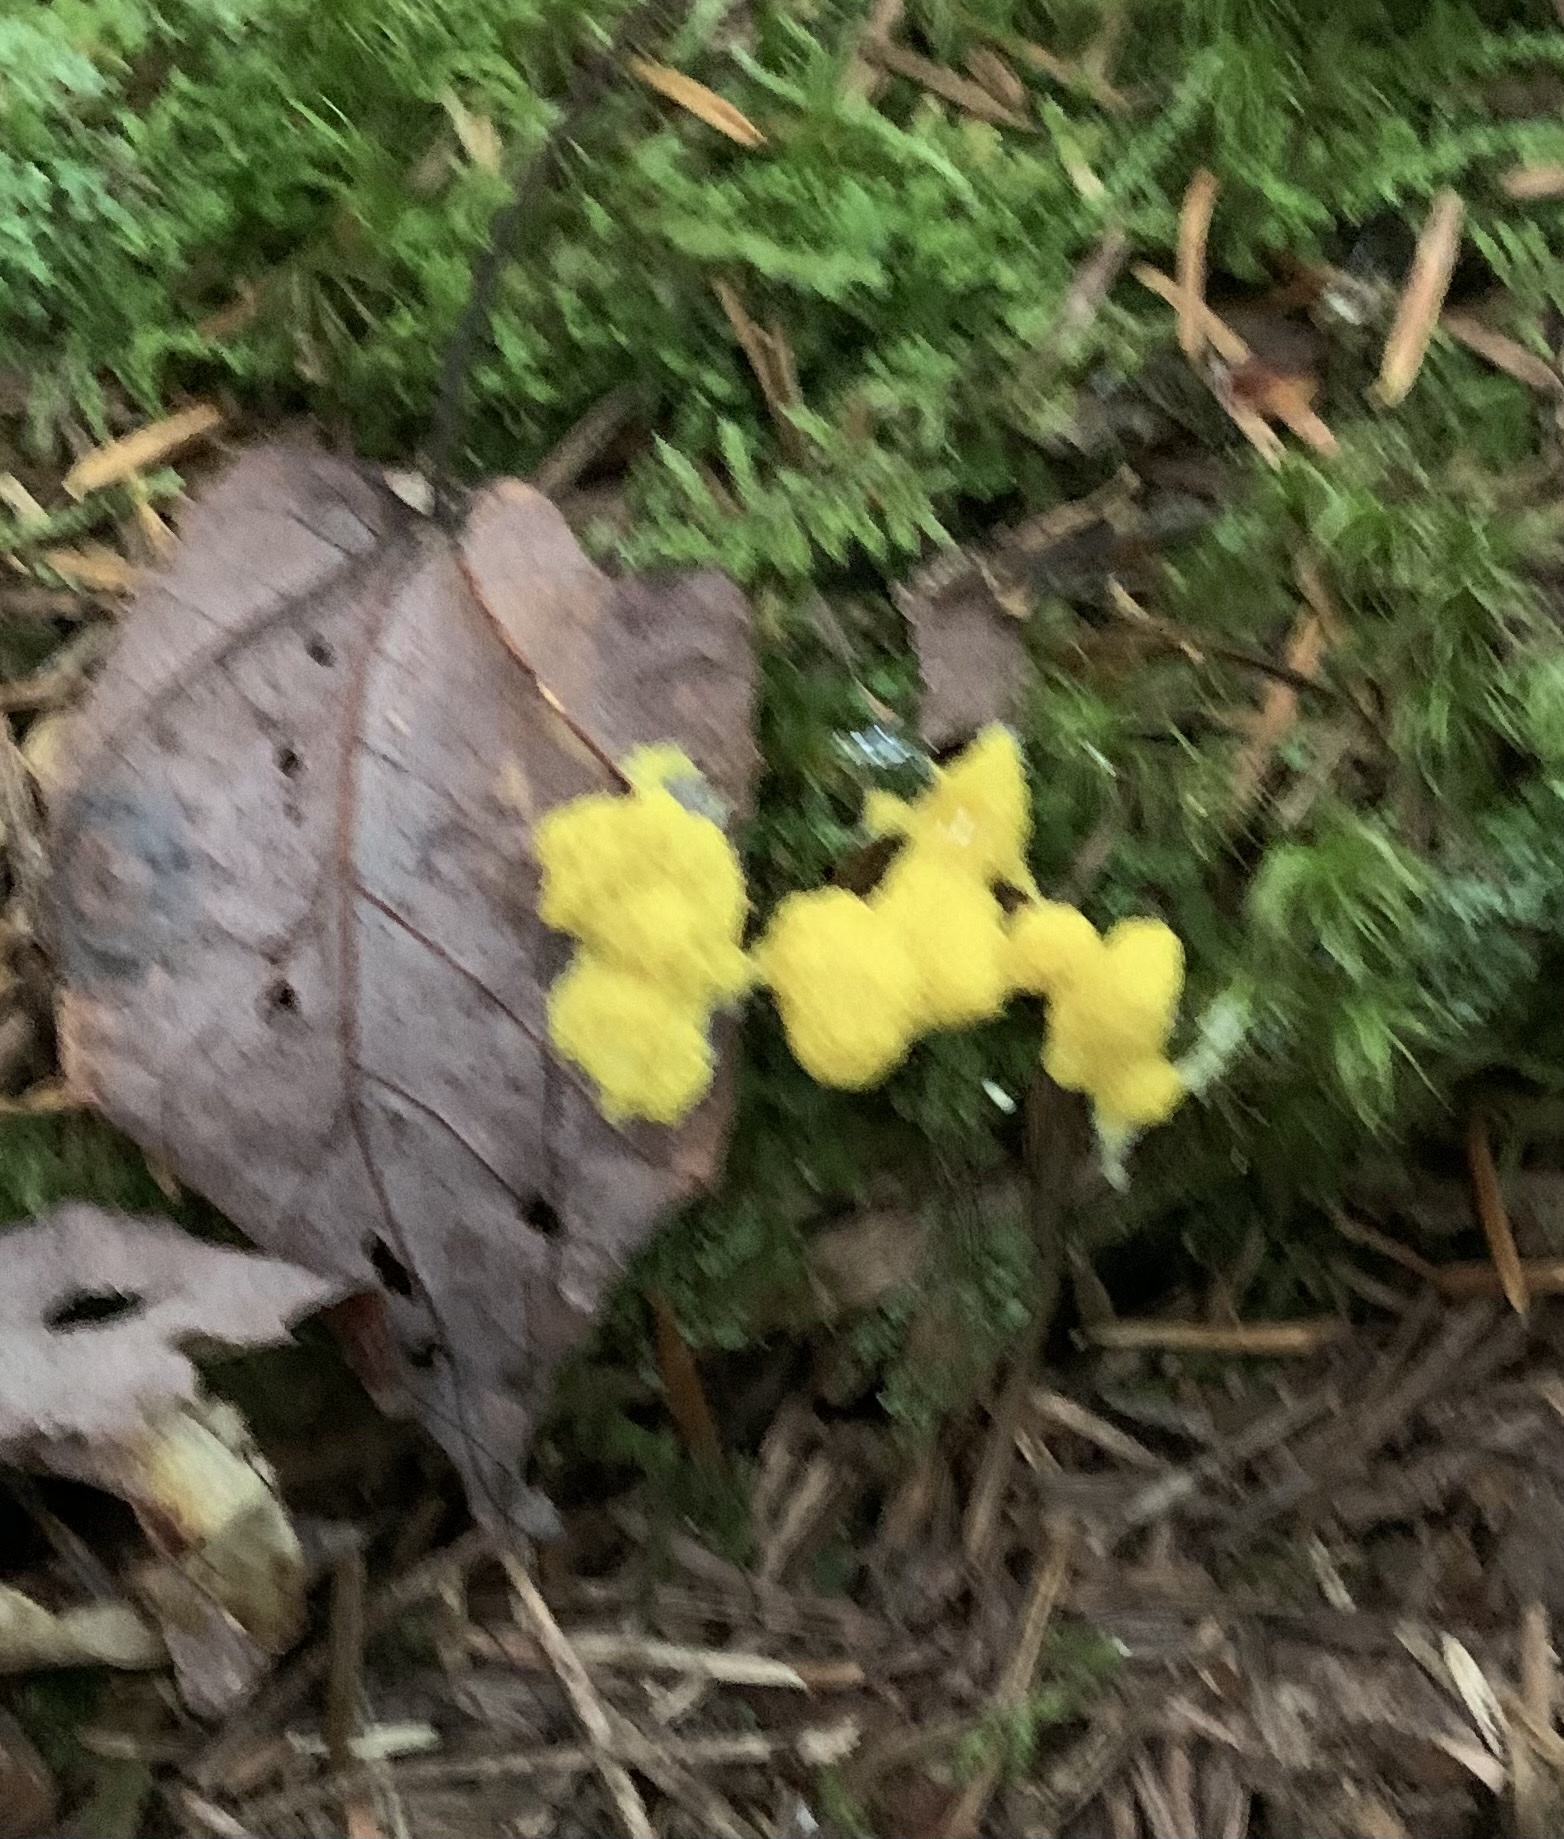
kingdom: Protozoa
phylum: Mycetozoa
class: Myxomycetes
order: Physarales
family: Physaraceae
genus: Fuligo
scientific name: Fuligo septica
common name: Dog vomit slime mold
